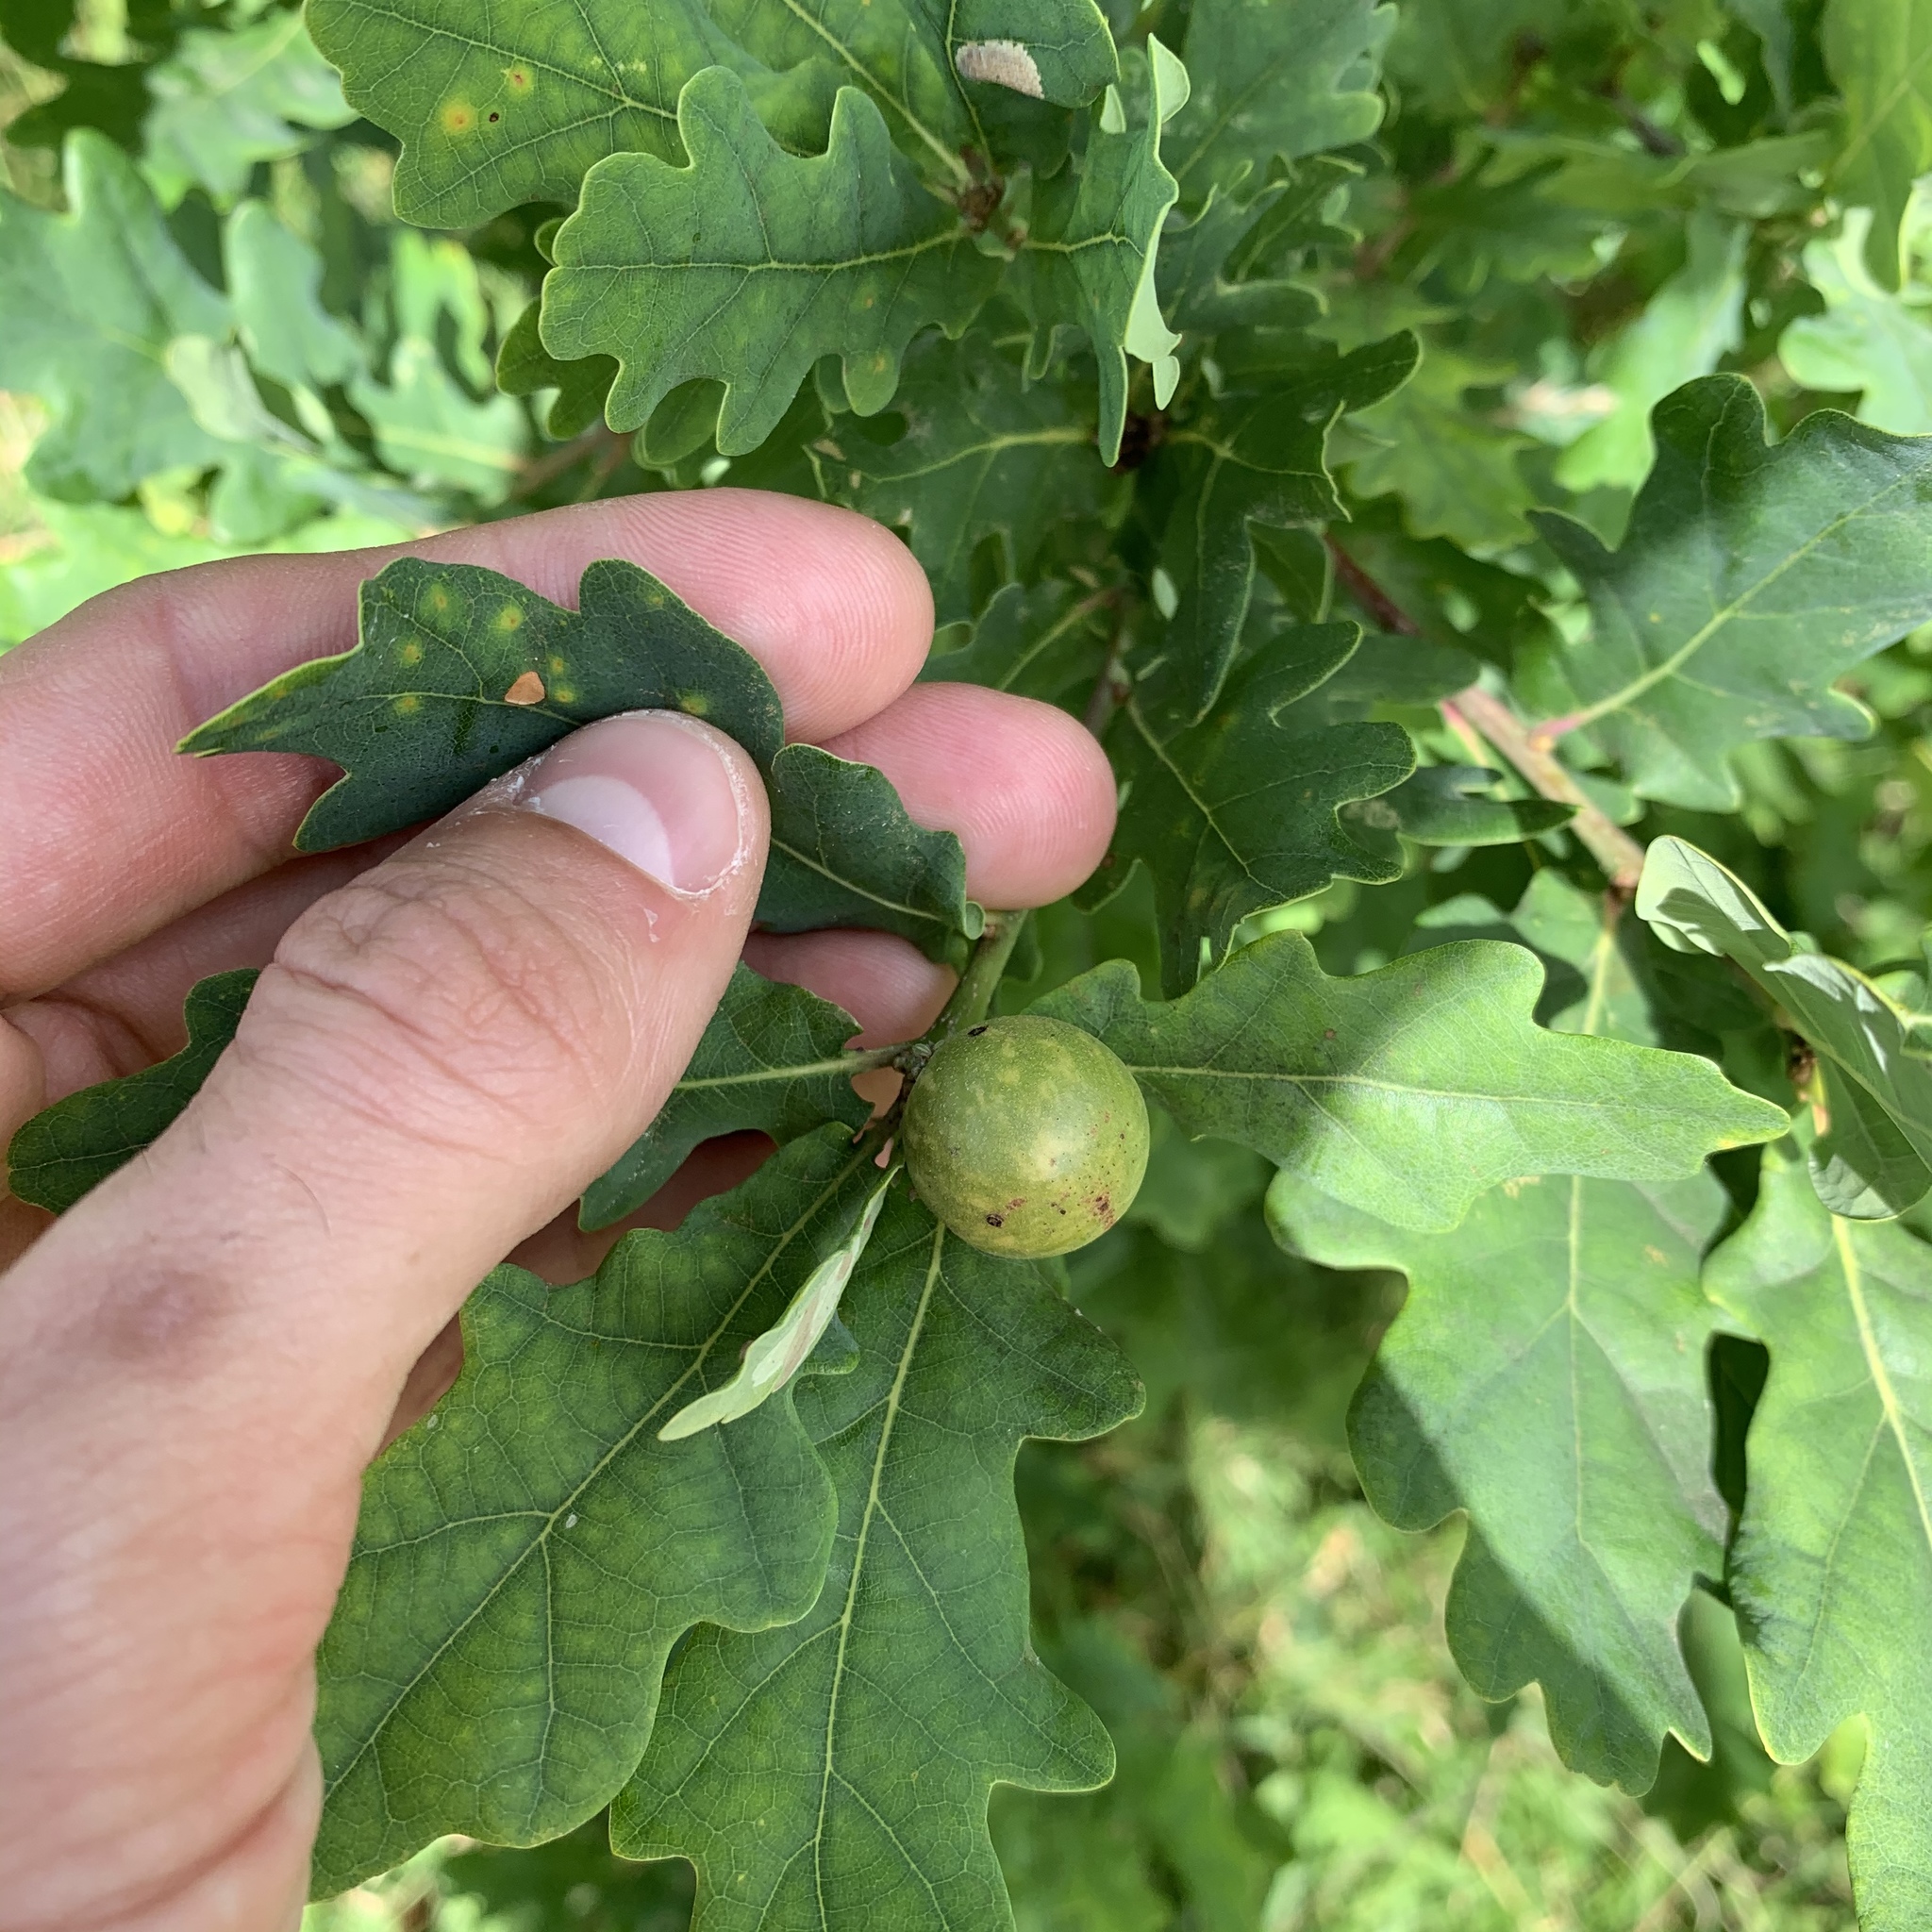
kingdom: Animalia
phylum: Arthropoda
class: Insecta
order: Hymenoptera
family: Cynipidae
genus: Andricus
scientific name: Andricus kollari
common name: Marble gall
